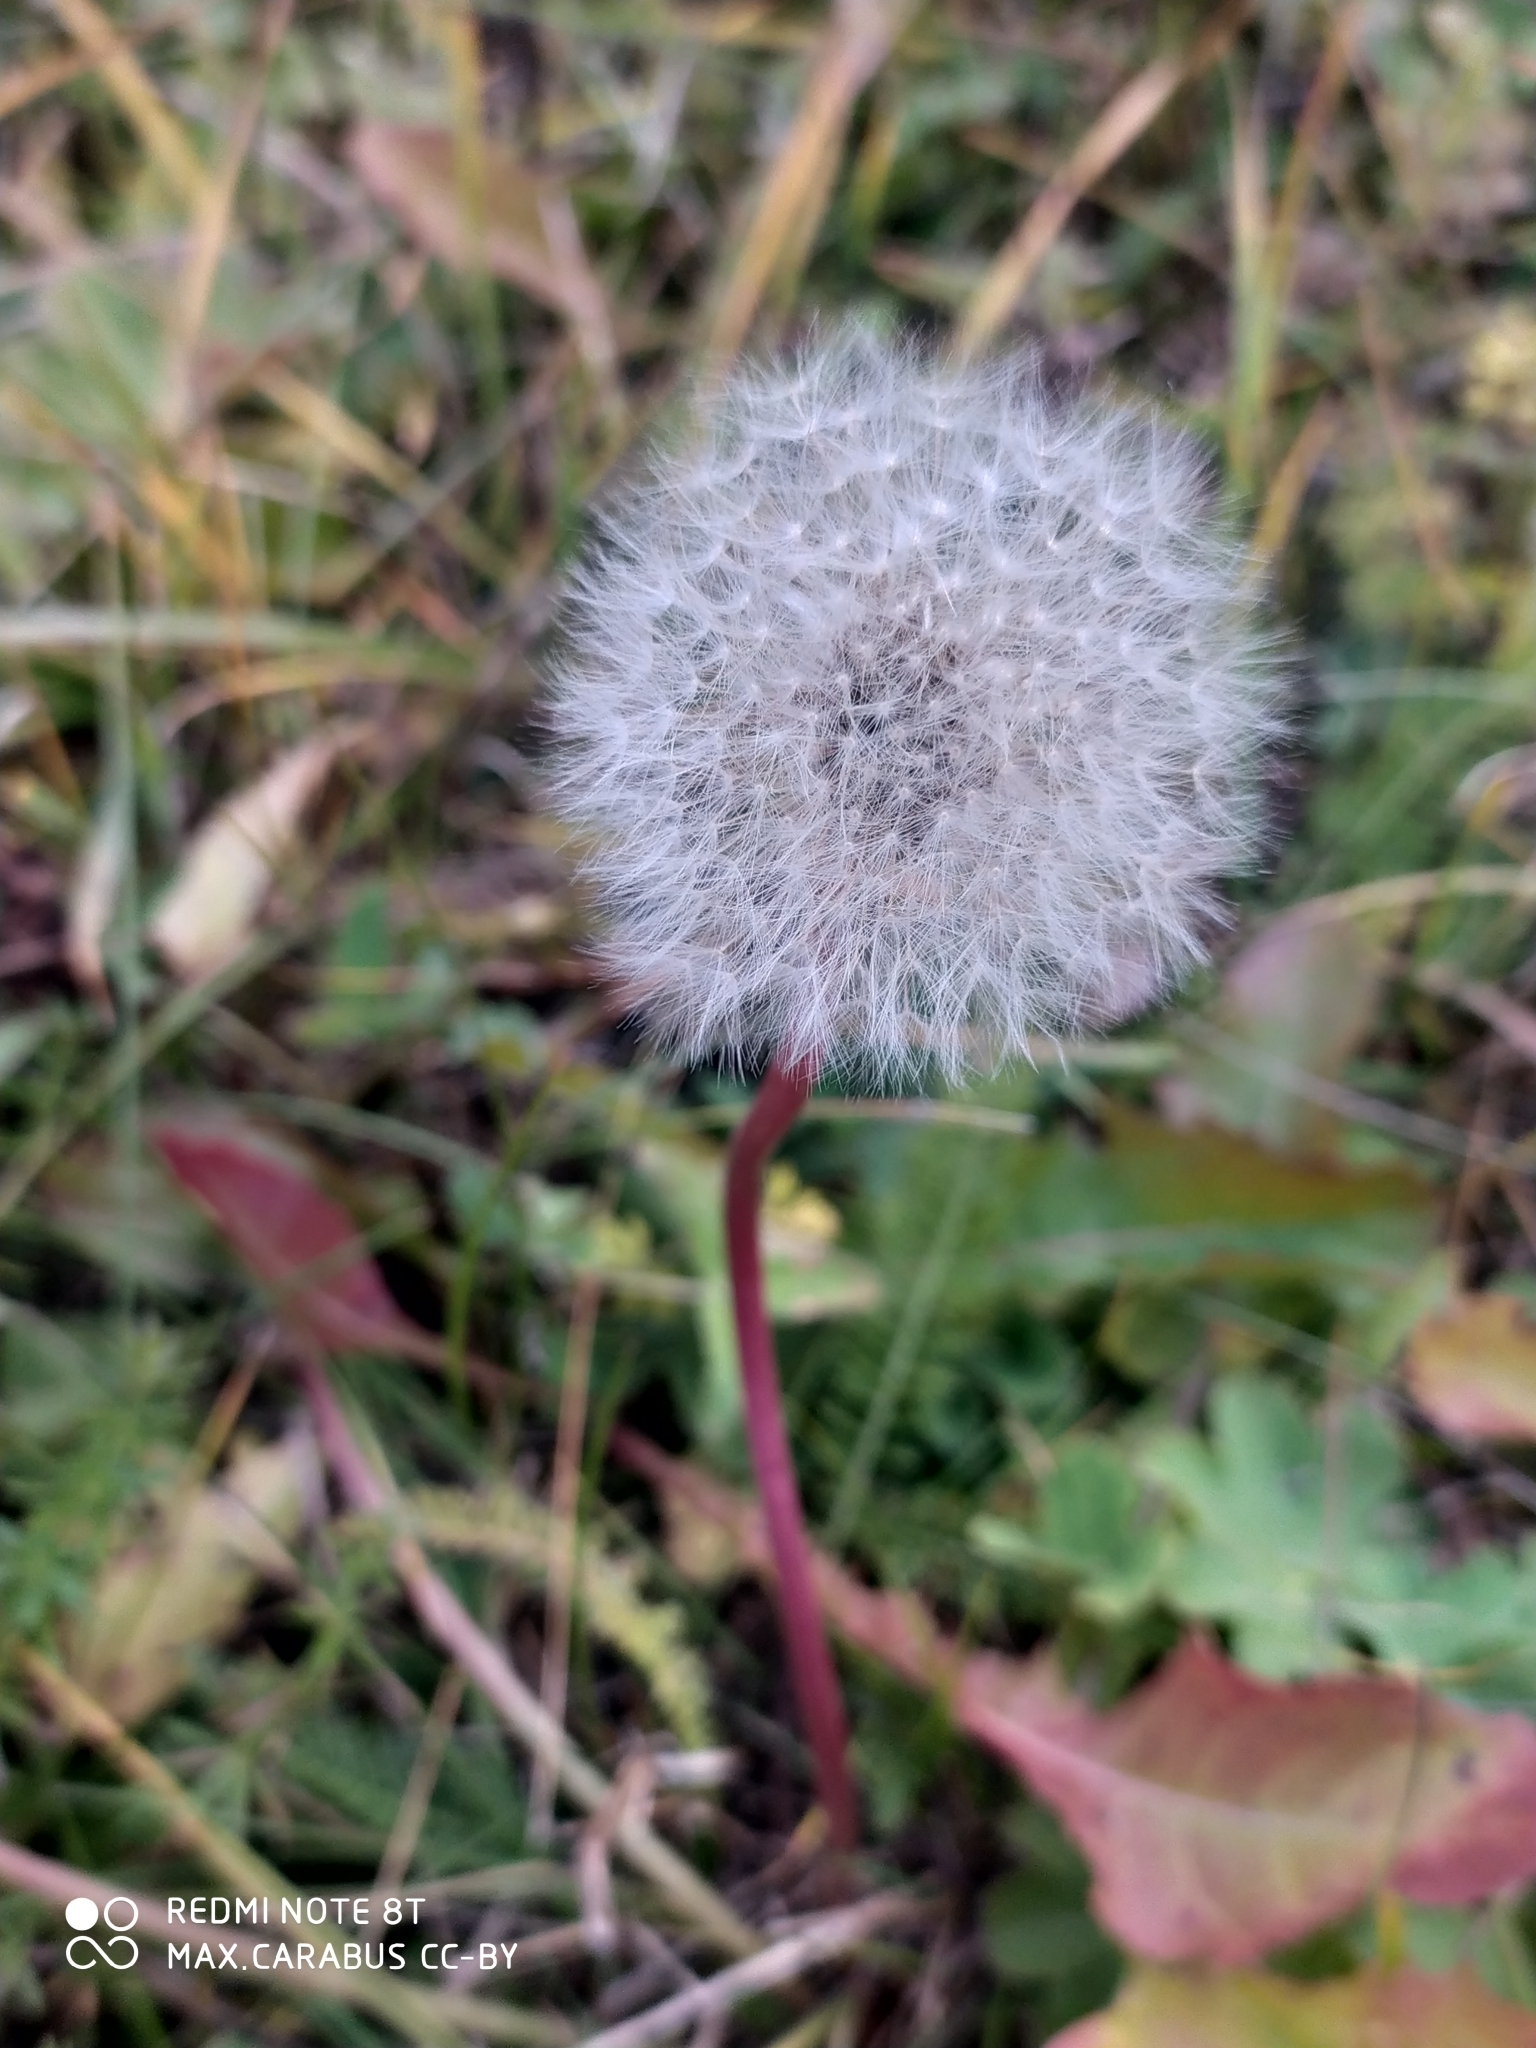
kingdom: Plantae
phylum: Tracheophyta
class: Magnoliopsida
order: Asterales
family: Asteraceae
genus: Taraxacum
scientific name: Taraxacum officinale
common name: Common dandelion
